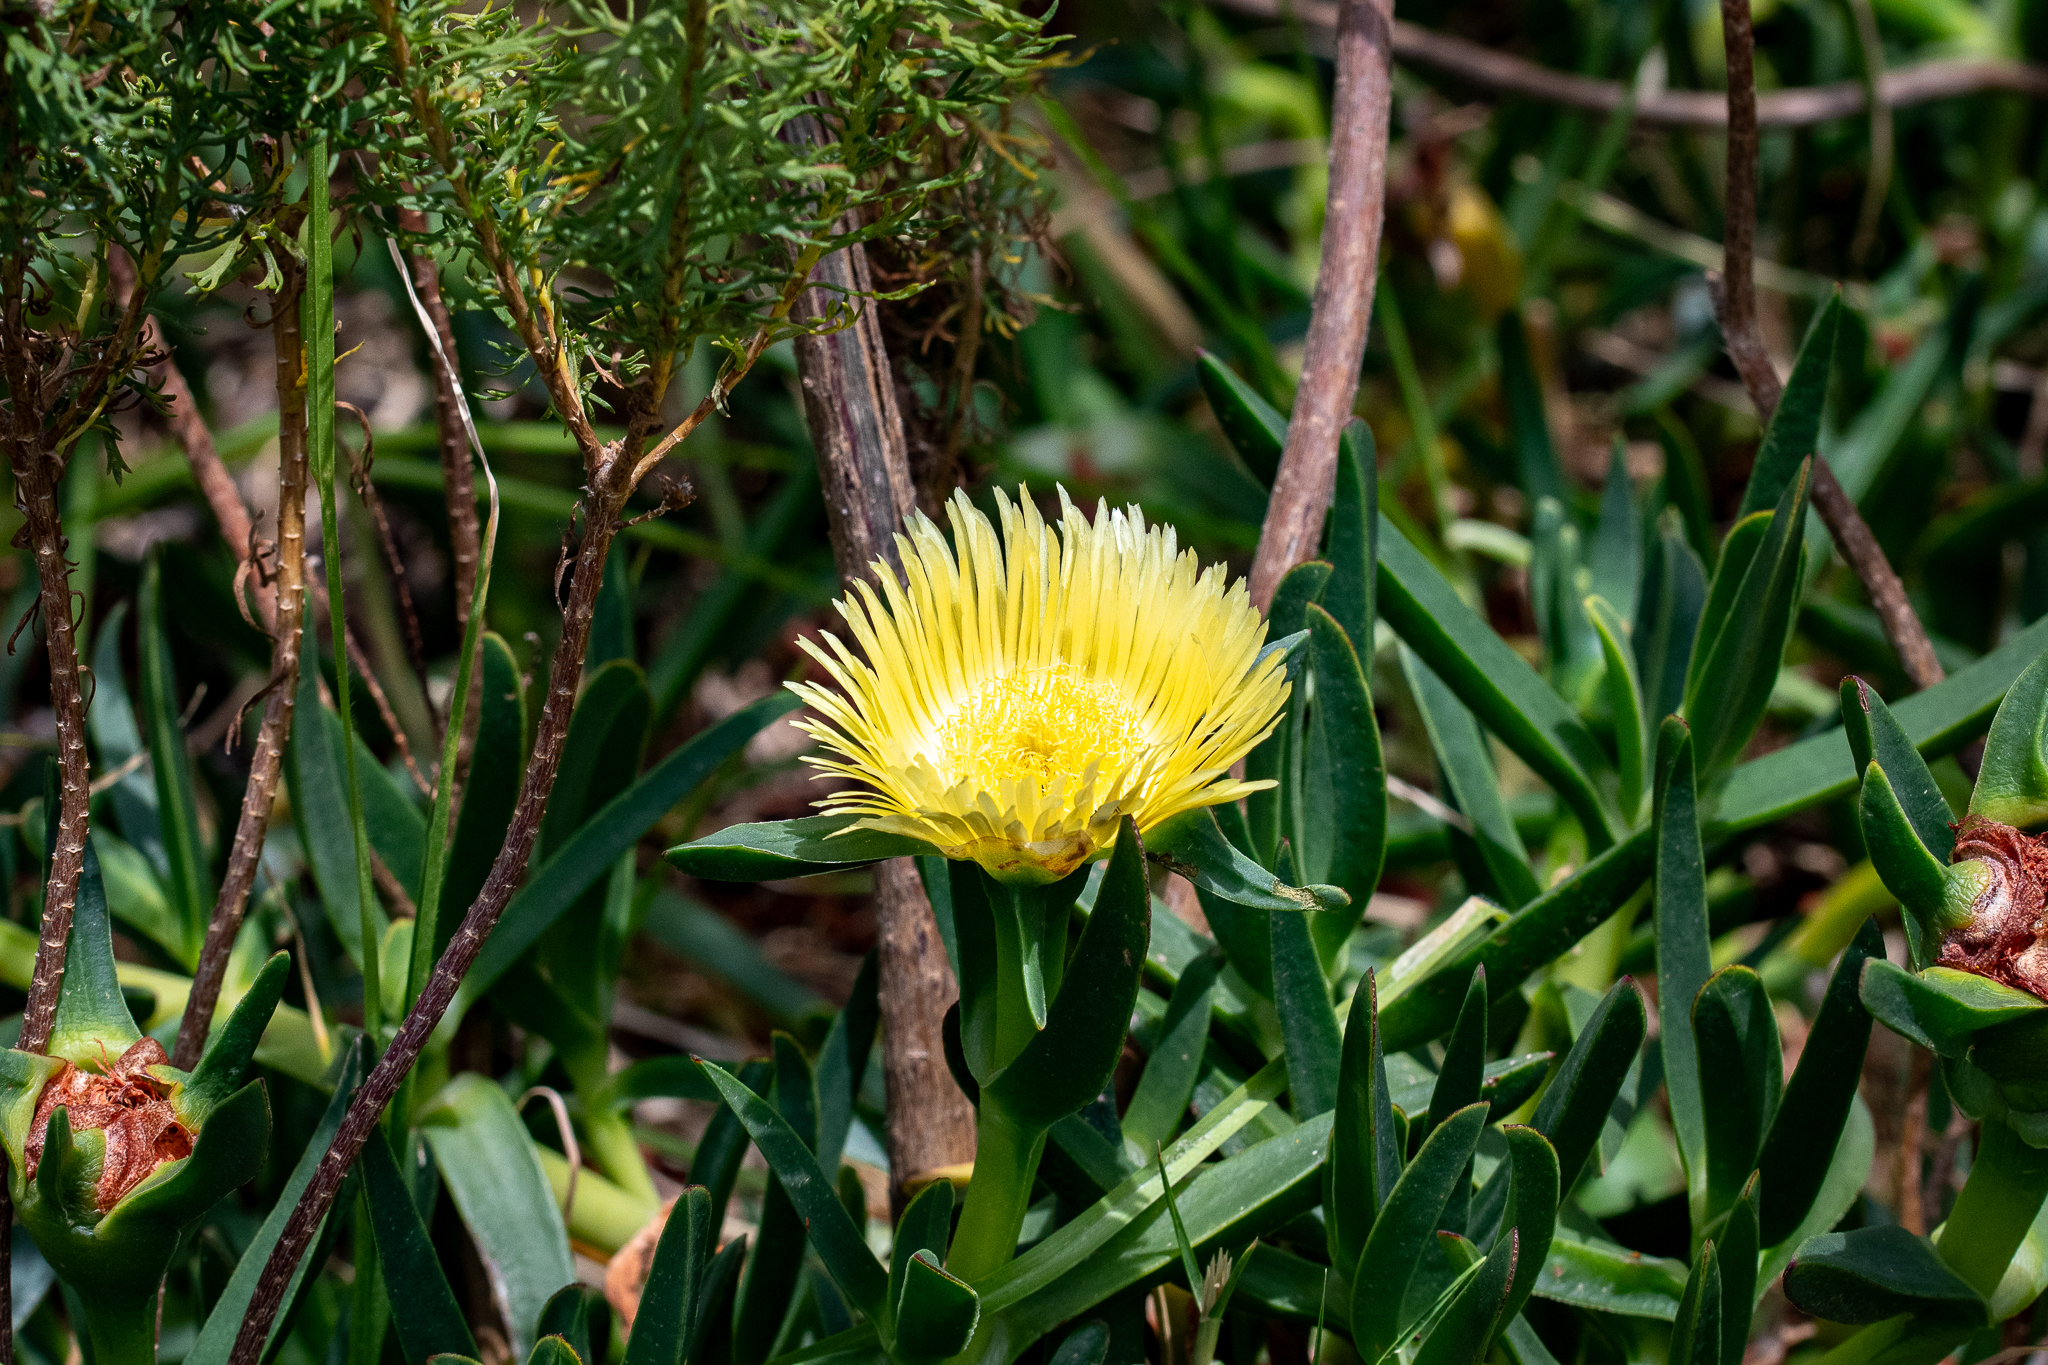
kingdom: Plantae
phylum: Tracheophyta
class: Magnoliopsida
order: Caryophyllales
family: Aizoaceae
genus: Carpobrotus
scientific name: Carpobrotus edulis
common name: Hottentot-fig
